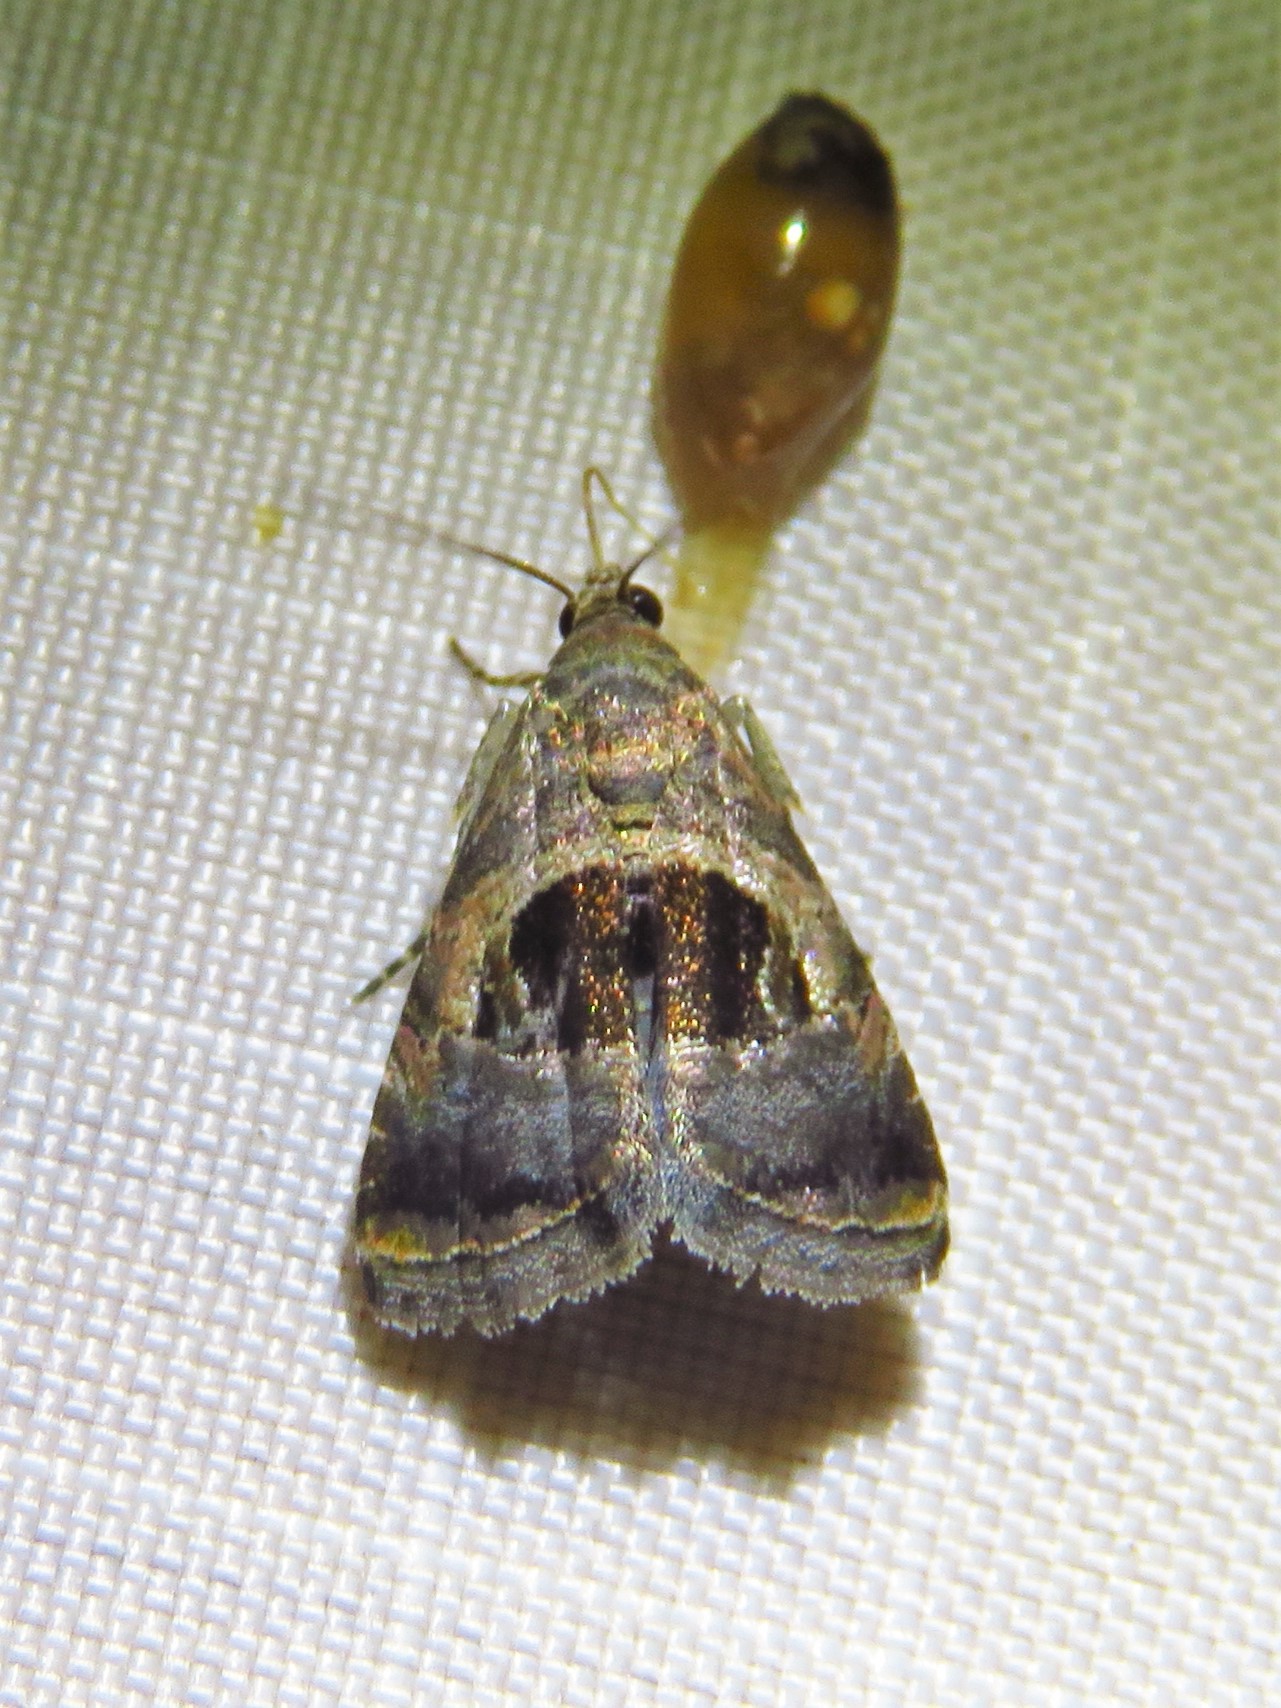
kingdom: Animalia
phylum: Arthropoda
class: Insecta
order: Lepidoptera
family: Noctuidae
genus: Tripudia
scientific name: Tripudia rectangula
